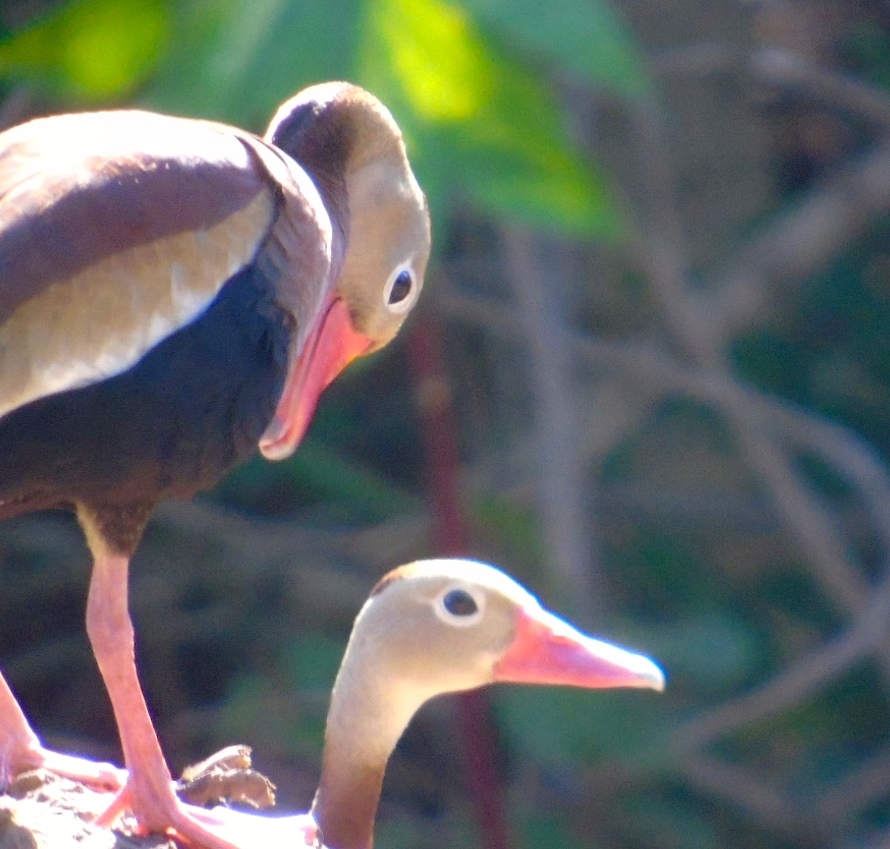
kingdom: Animalia
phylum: Chordata
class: Aves
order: Anseriformes
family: Anatidae
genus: Dendrocygna
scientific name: Dendrocygna autumnalis
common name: Black-bellied whistling duck
